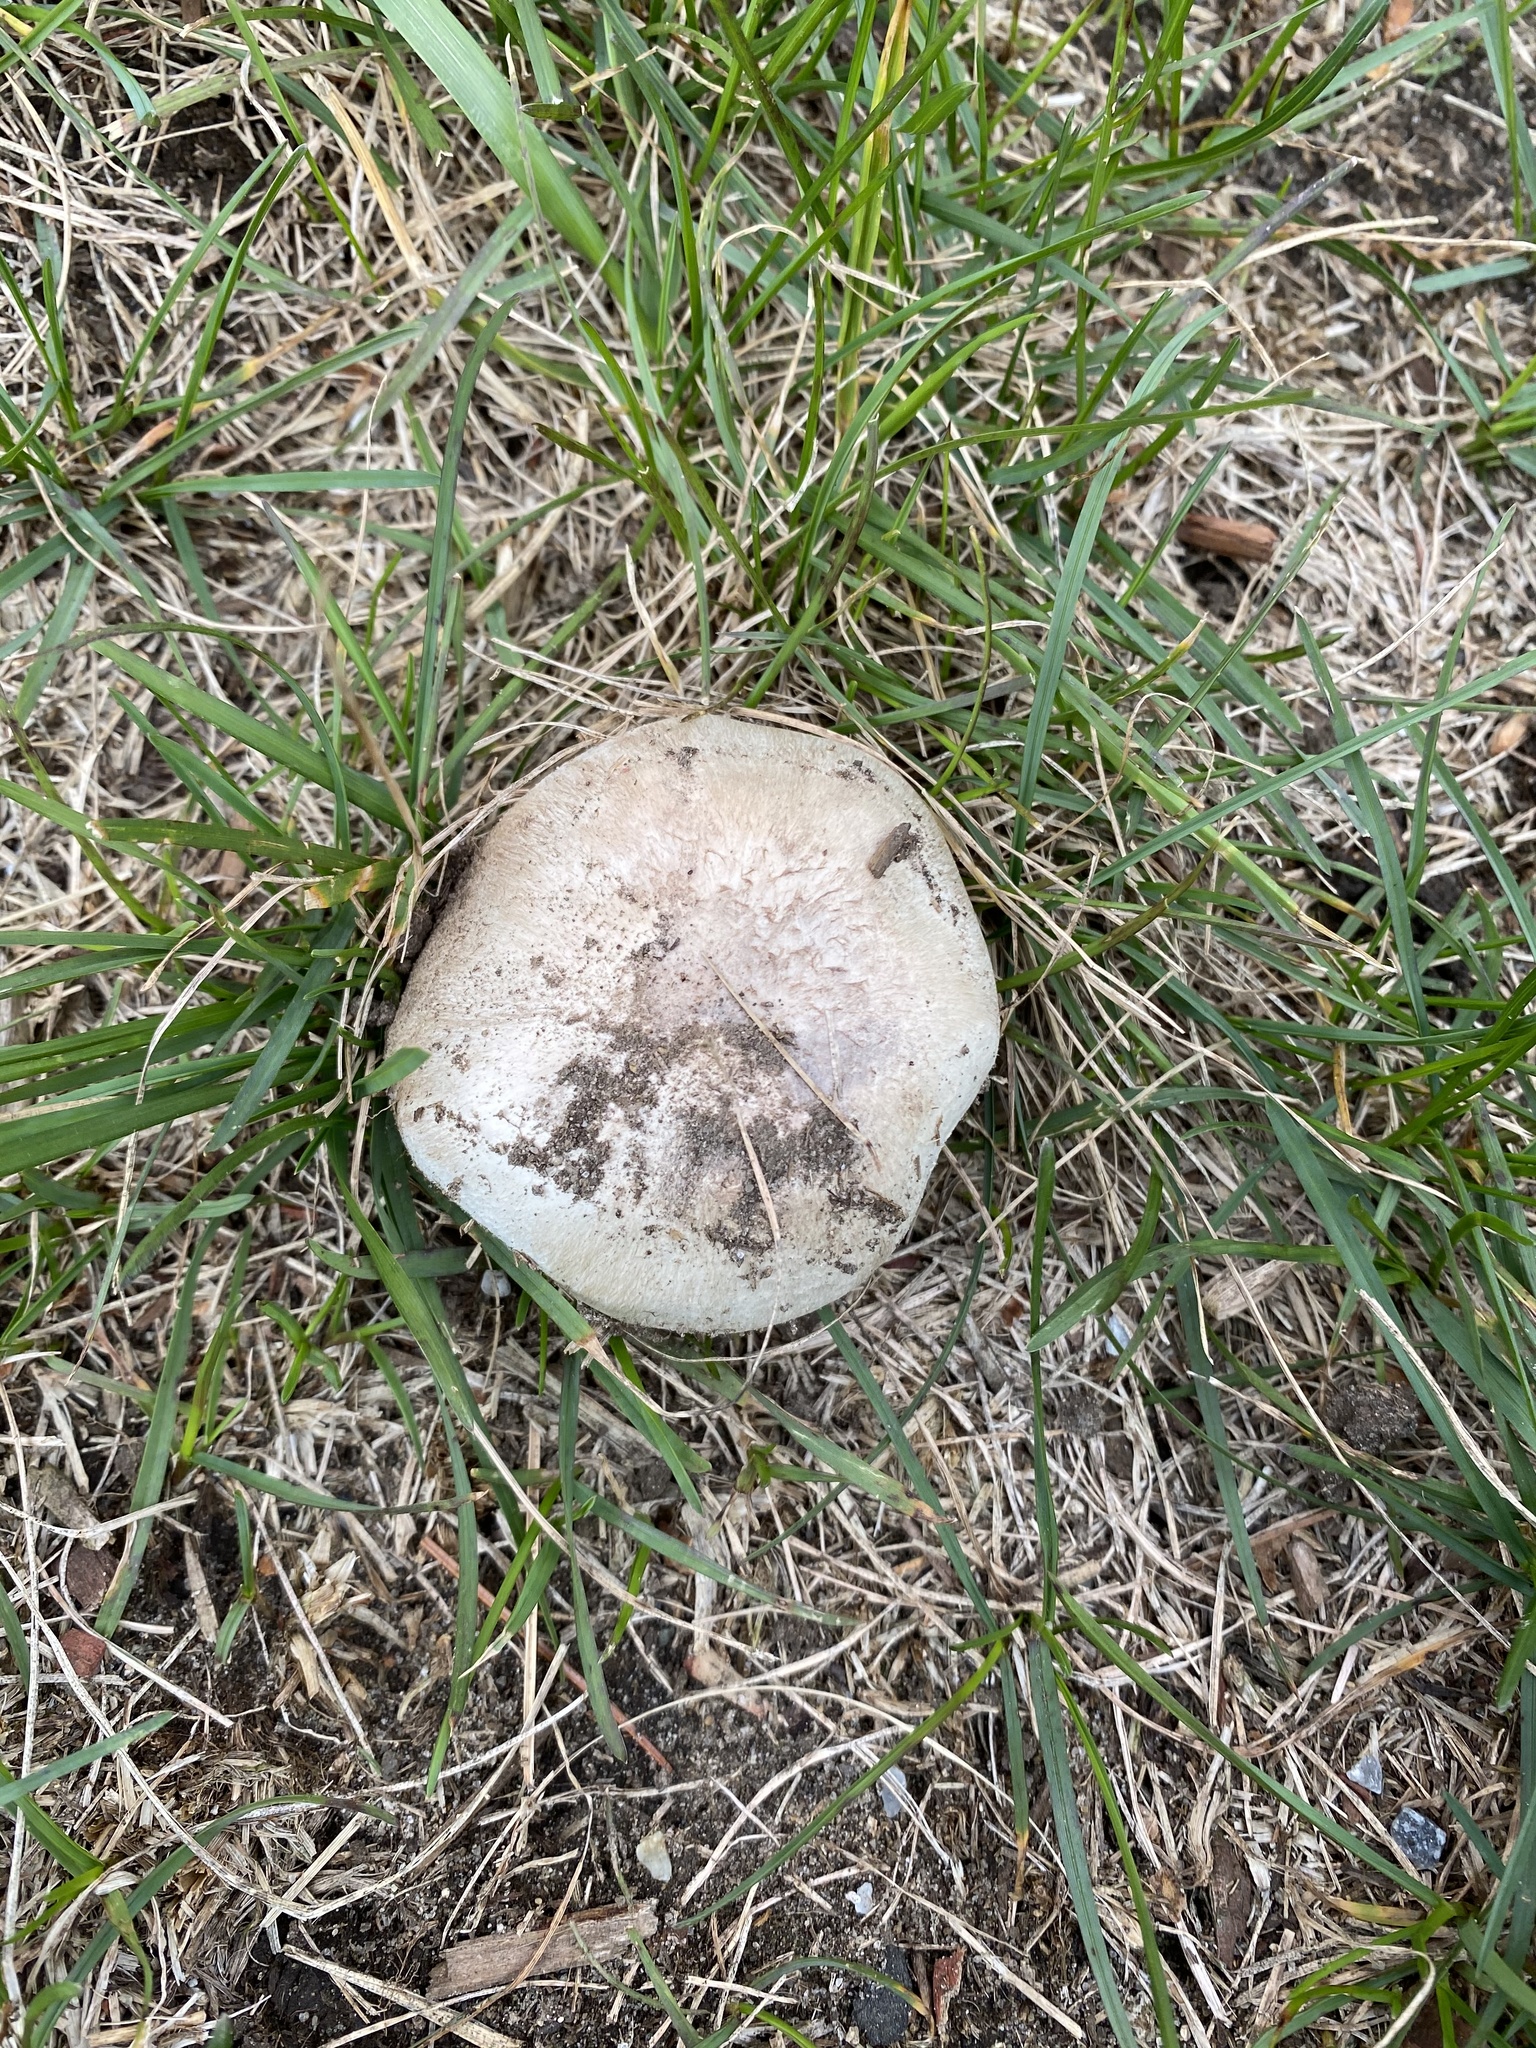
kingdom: Fungi
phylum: Basidiomycota
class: Agaricomycetes
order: Agaricales
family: Agaricaceae
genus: Agaricus
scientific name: Agaricus campestris
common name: Field mushroom
